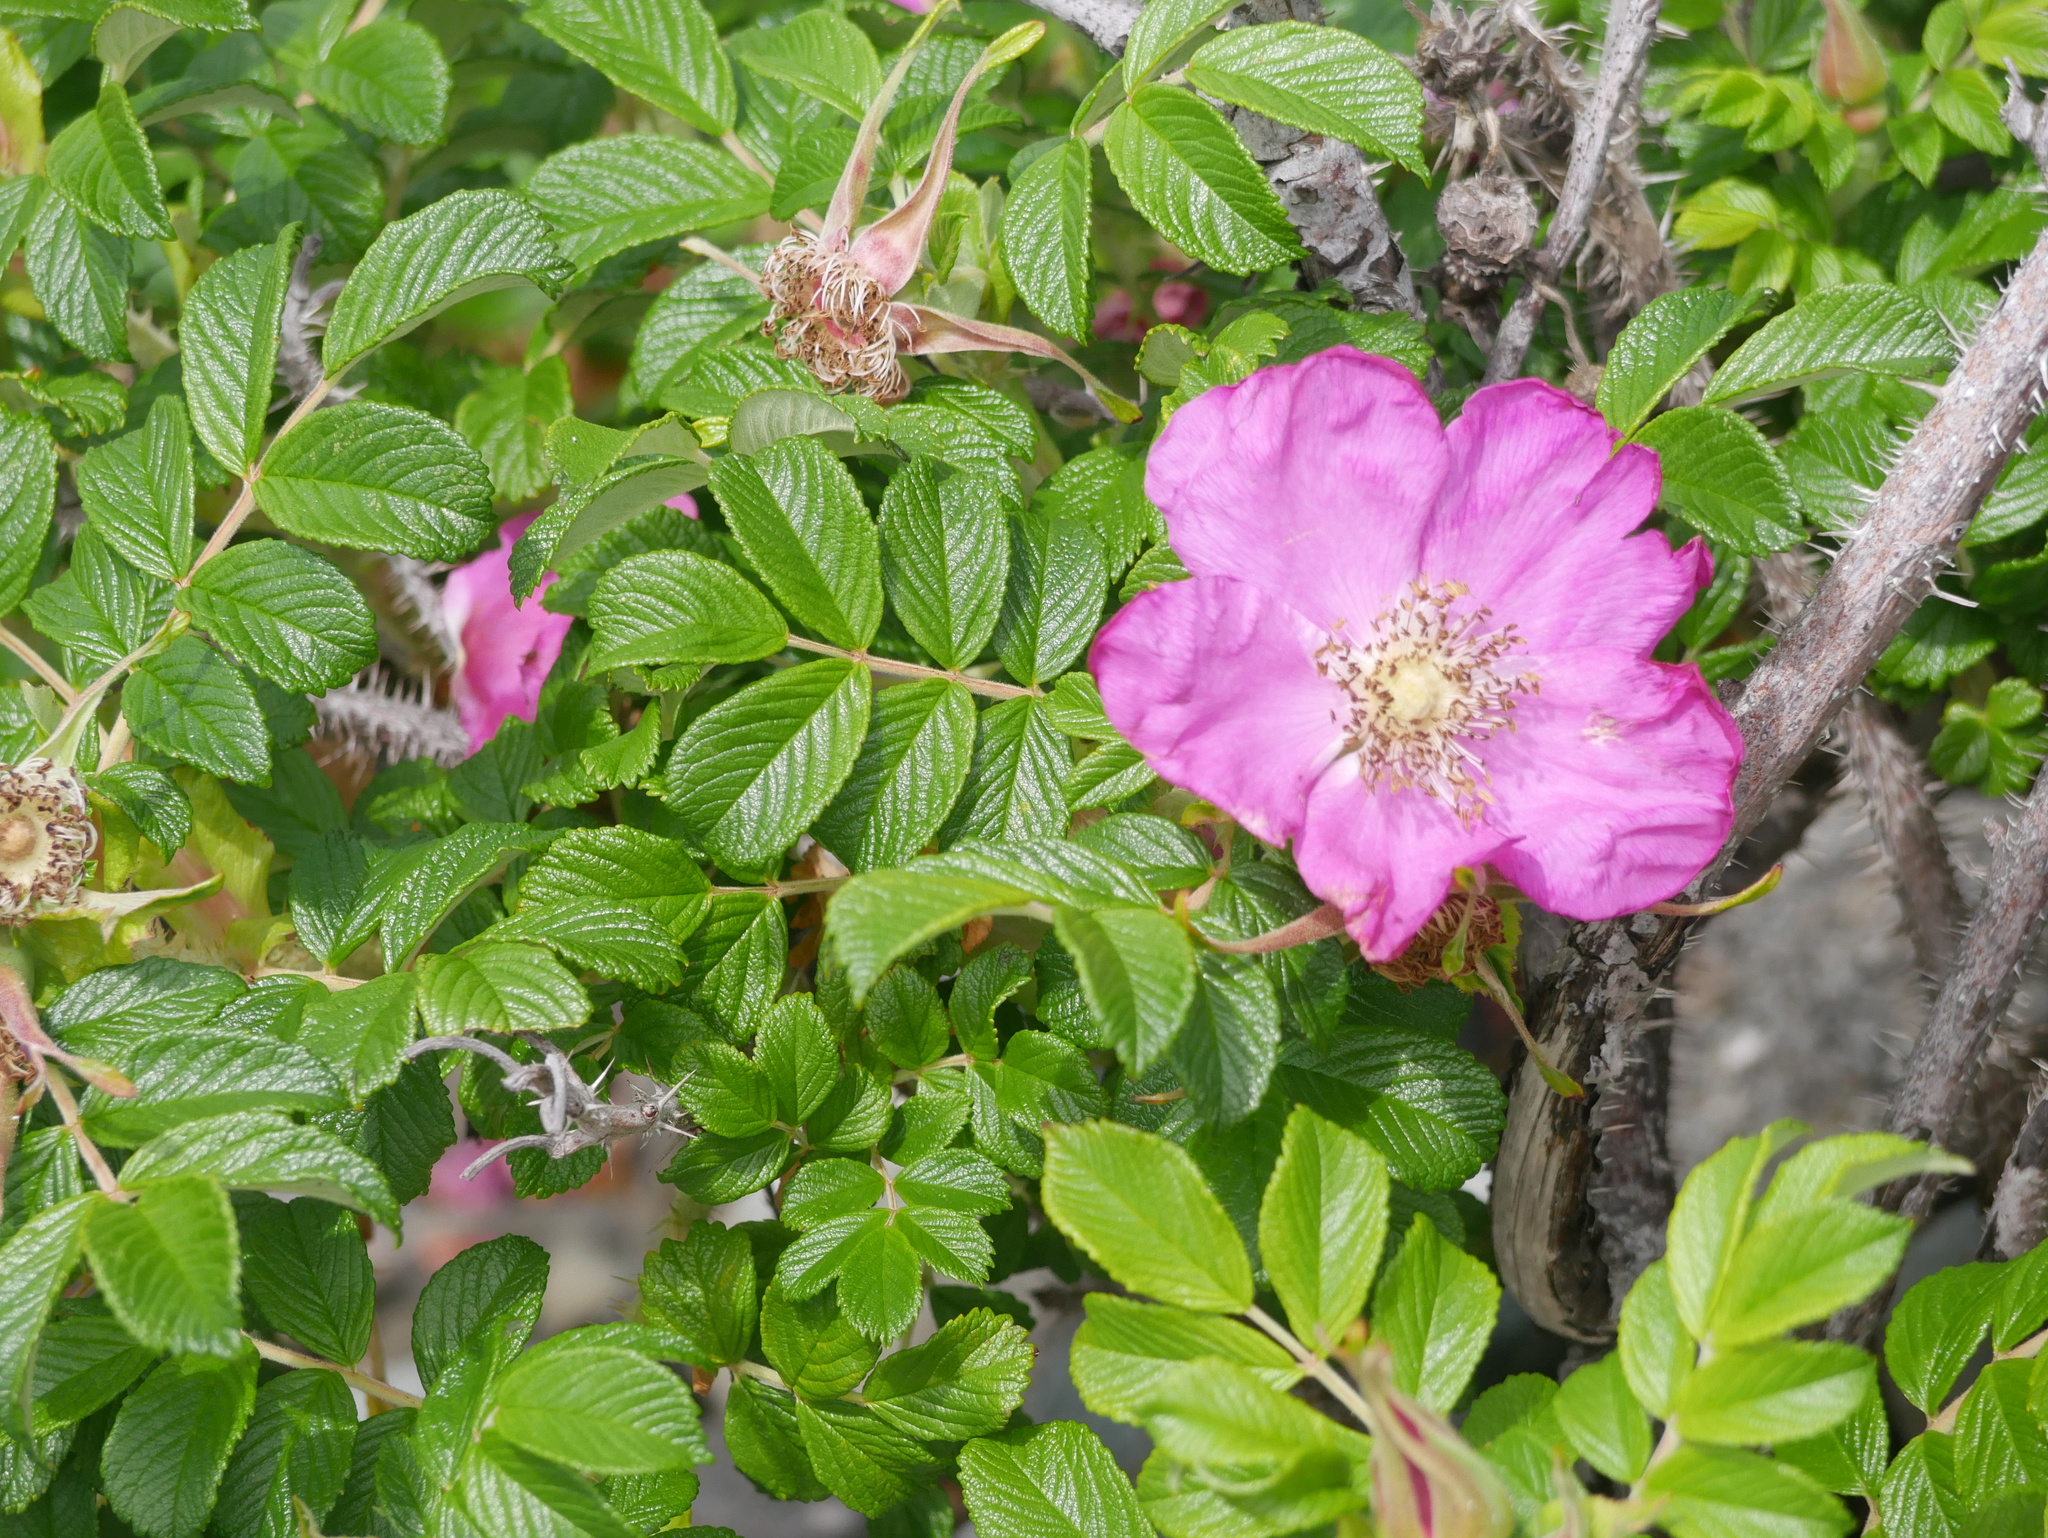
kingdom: Plantae
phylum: Tracheophyta
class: Magnoliopsida
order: Rosales
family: Rosaceae
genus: Rosa
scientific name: Rosa rugosa
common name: Japanese rose
